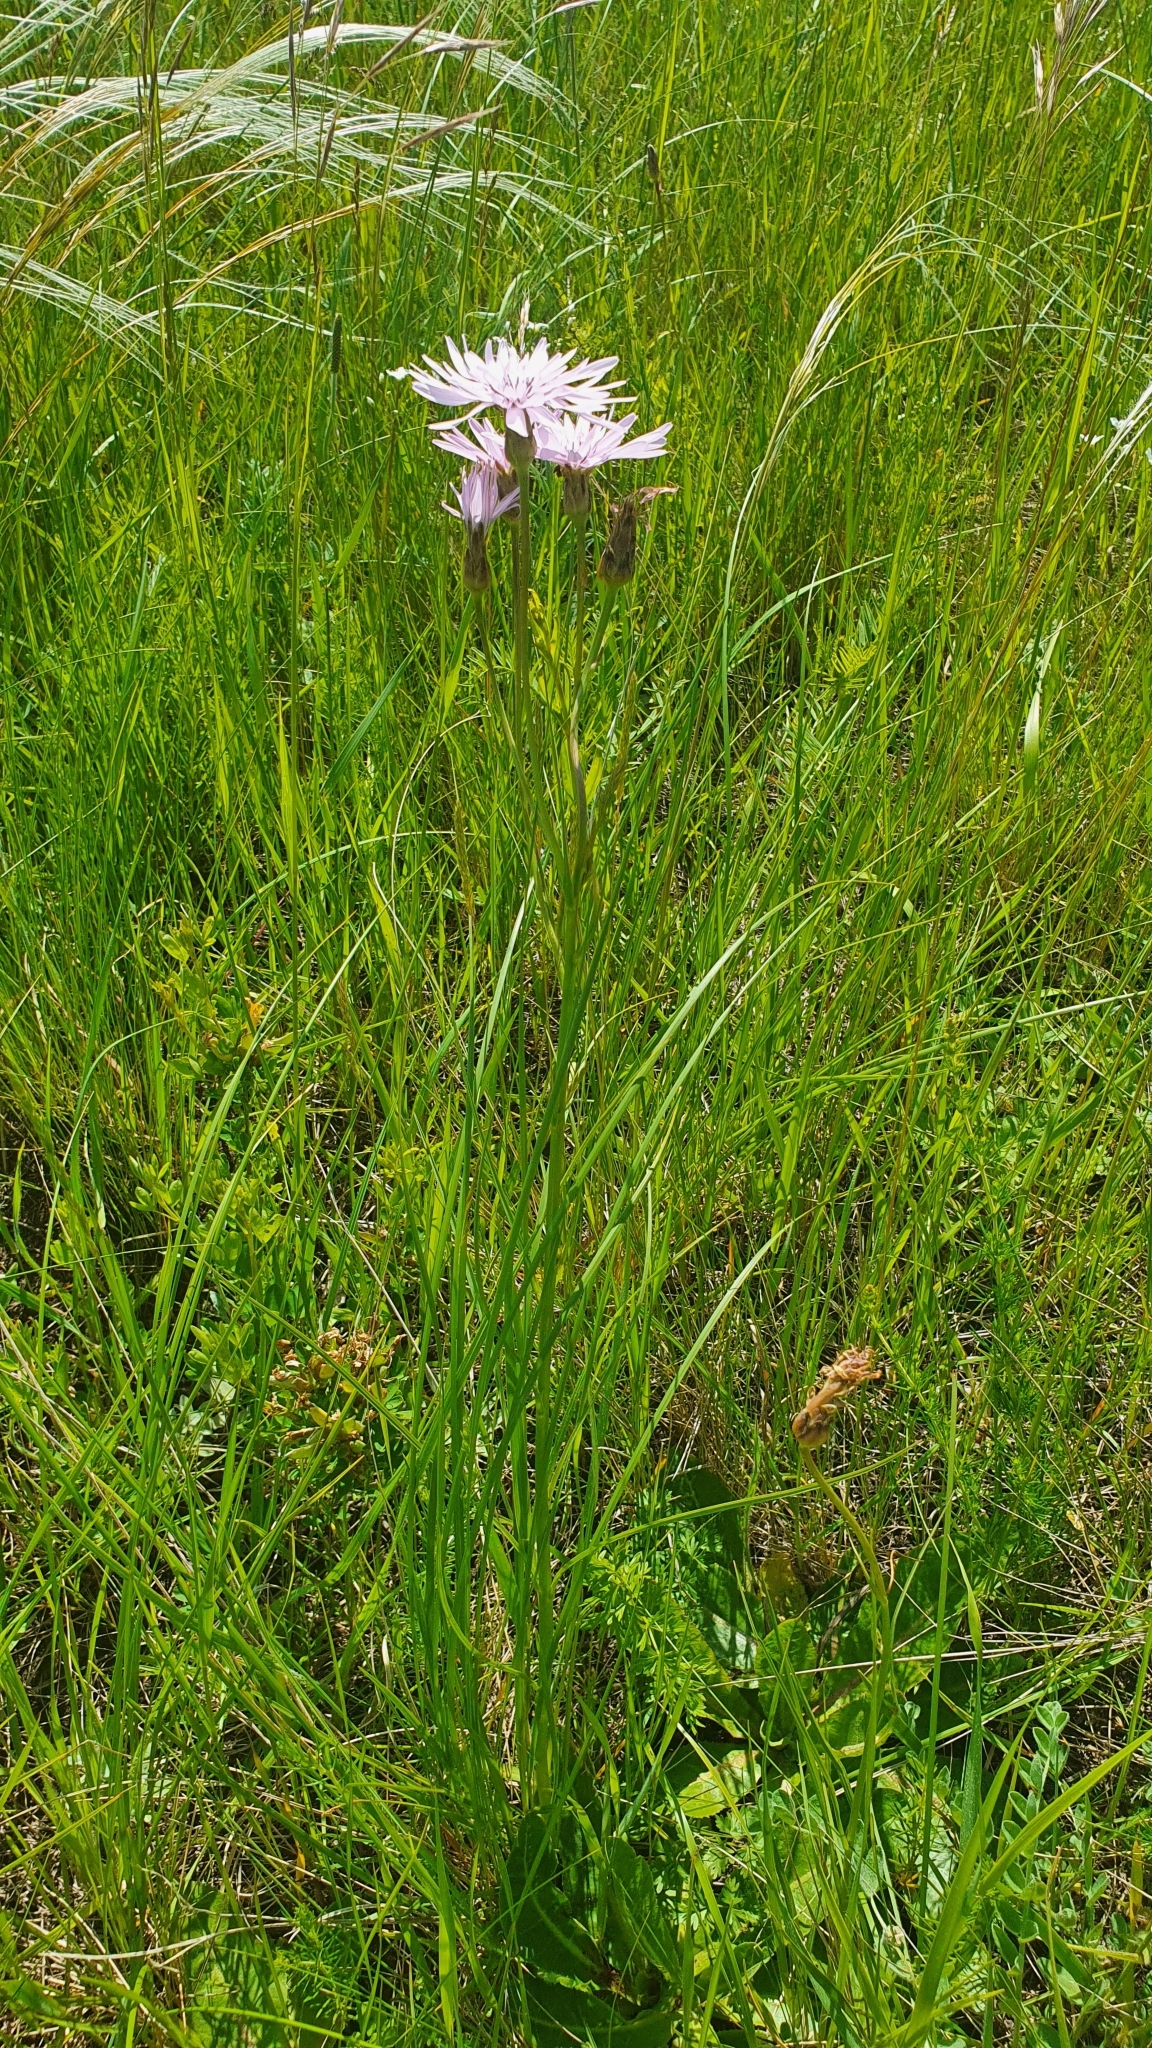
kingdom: Plantae
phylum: Tracheophyta
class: Magnoliopsida
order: Asterales
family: Asteraceae
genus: Scorzonera
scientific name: Scorzonera purpurea
